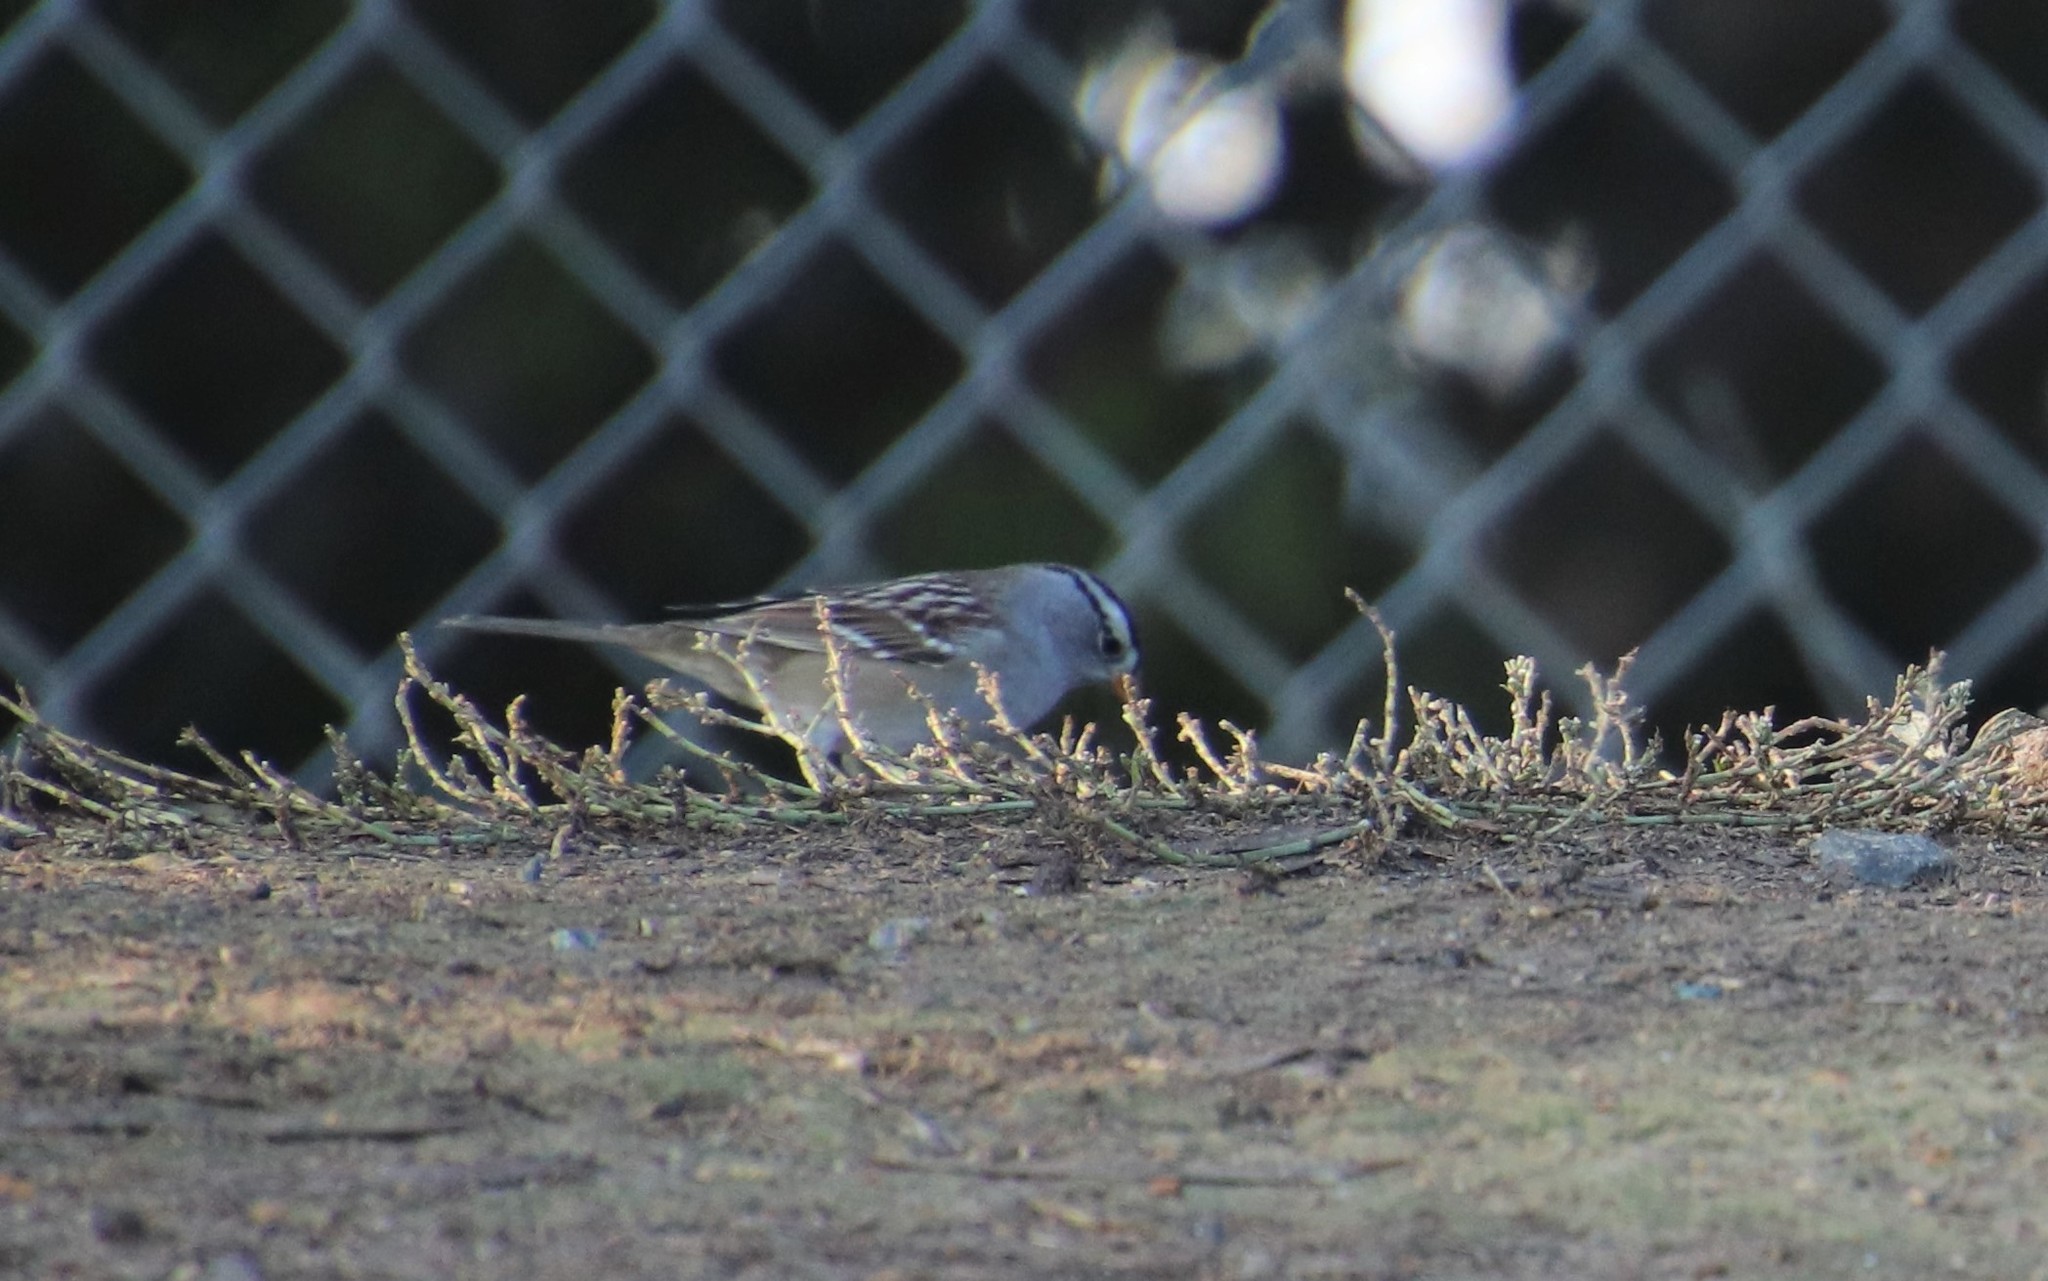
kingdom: Animalia
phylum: Chordata
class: Aves
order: Passeriformes
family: Passerellidae
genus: Zonotrichia
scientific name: Zonotrichia leucophrys
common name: White-crowned sparrow
